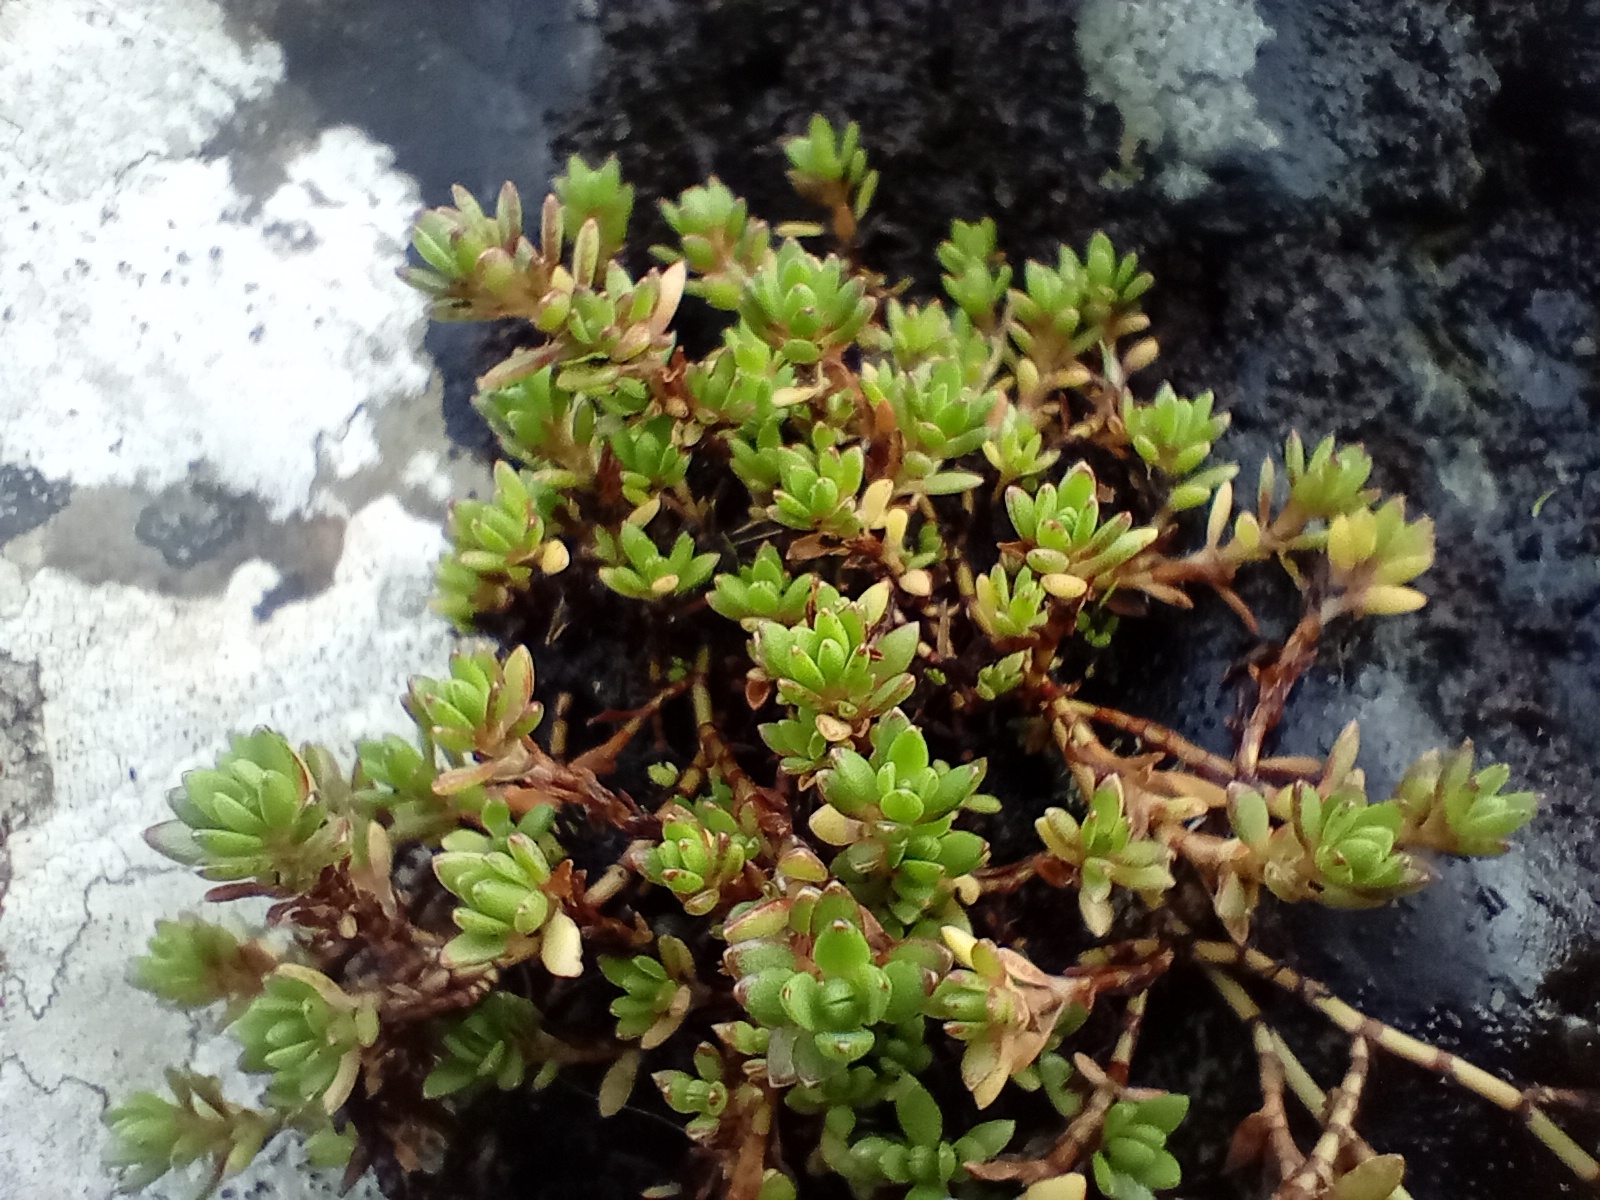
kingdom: Plantae
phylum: Tracheophyta
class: Magnoliopsida
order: Saxifragales
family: Crassulaceae
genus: Crassula
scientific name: Crassula moschata
